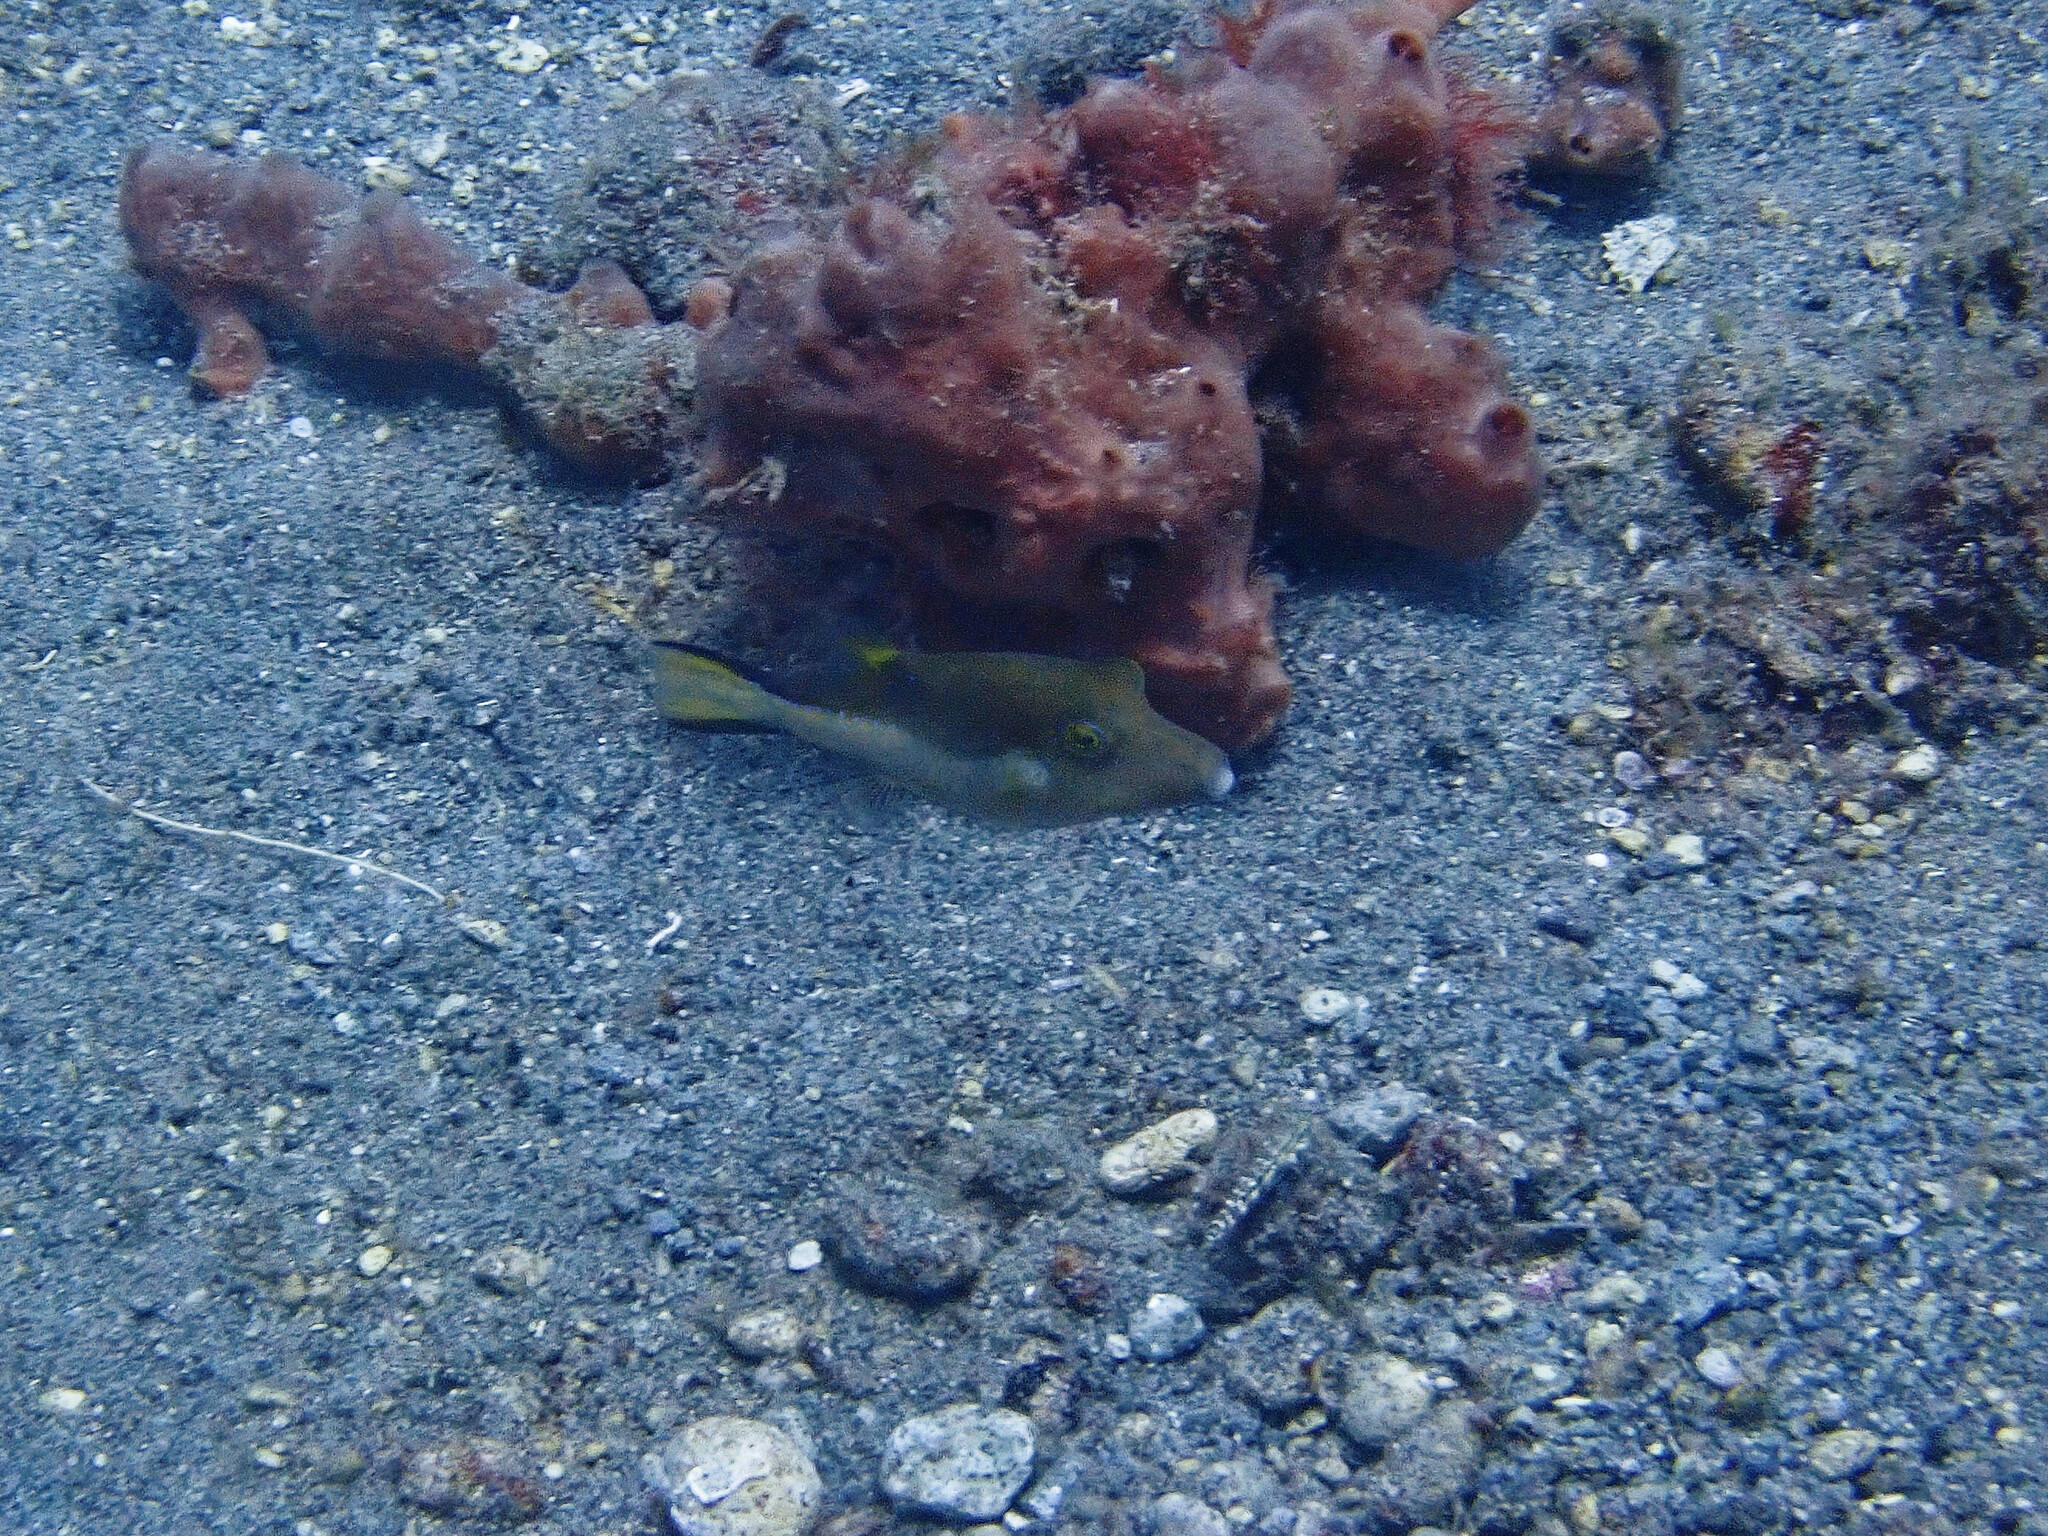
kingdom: Animalia
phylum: Chordata
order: Tetraodontiformes
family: Tetraodontidae
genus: Canthigaster
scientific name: Canthigaster rostrata
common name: Caribbean sharpnose-puffer
